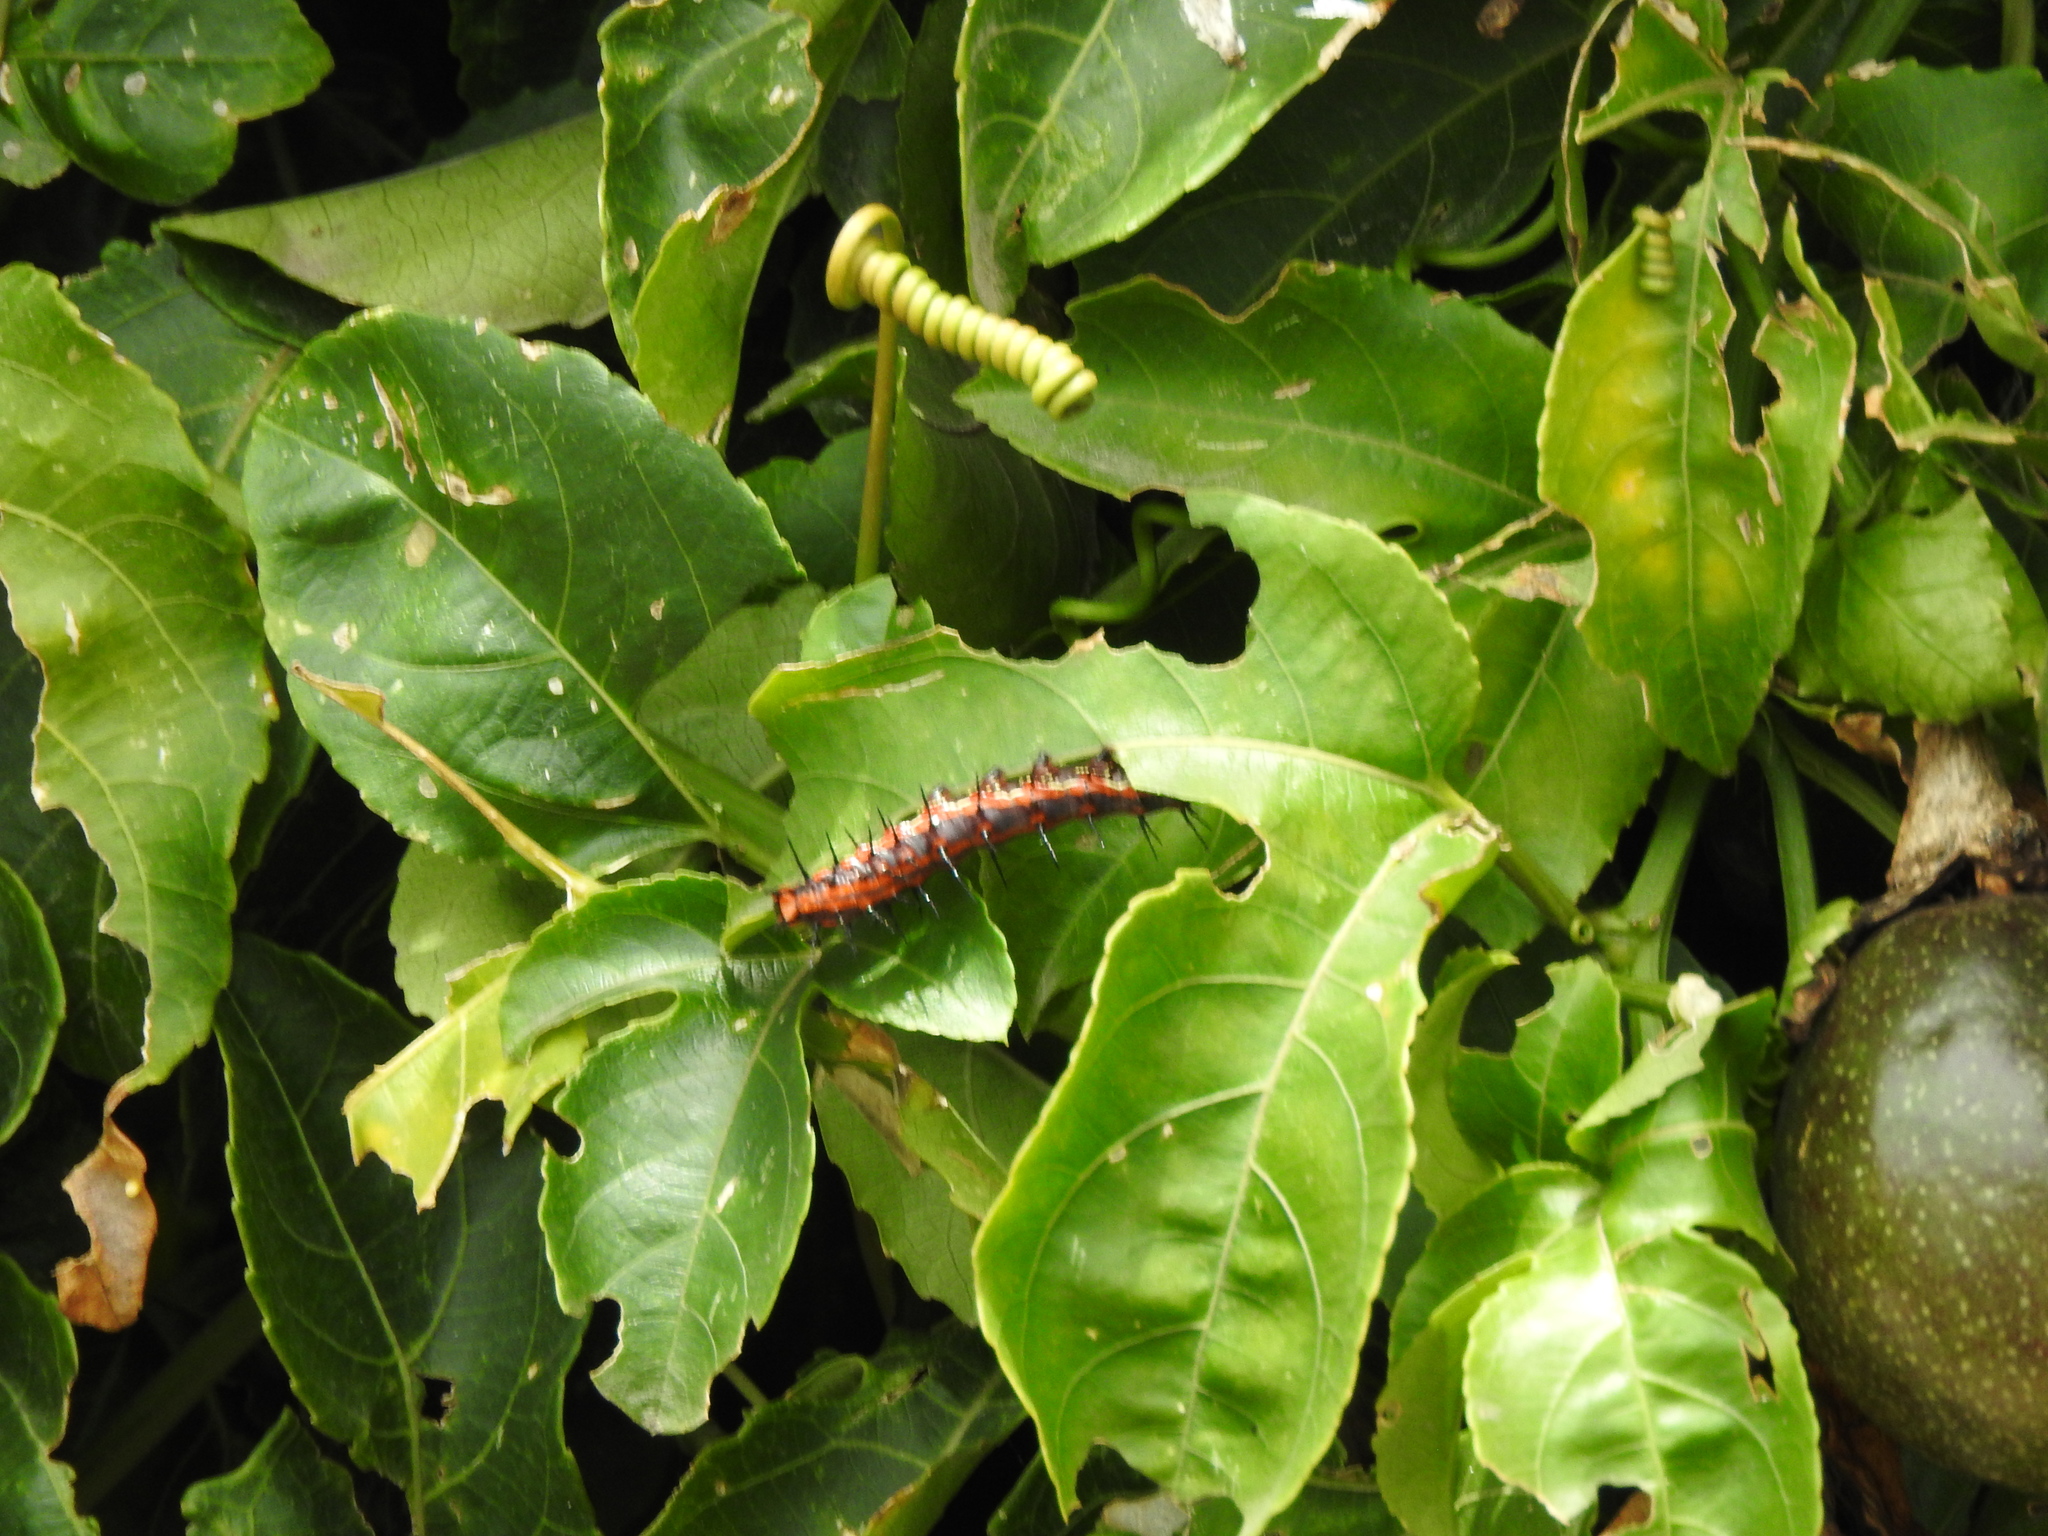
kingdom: Animalia
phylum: Arthropoda
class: Insecta
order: Lepidoptera
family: Nymphalidae
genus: Dione
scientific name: Dione vanillae
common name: Gulf fritillary
